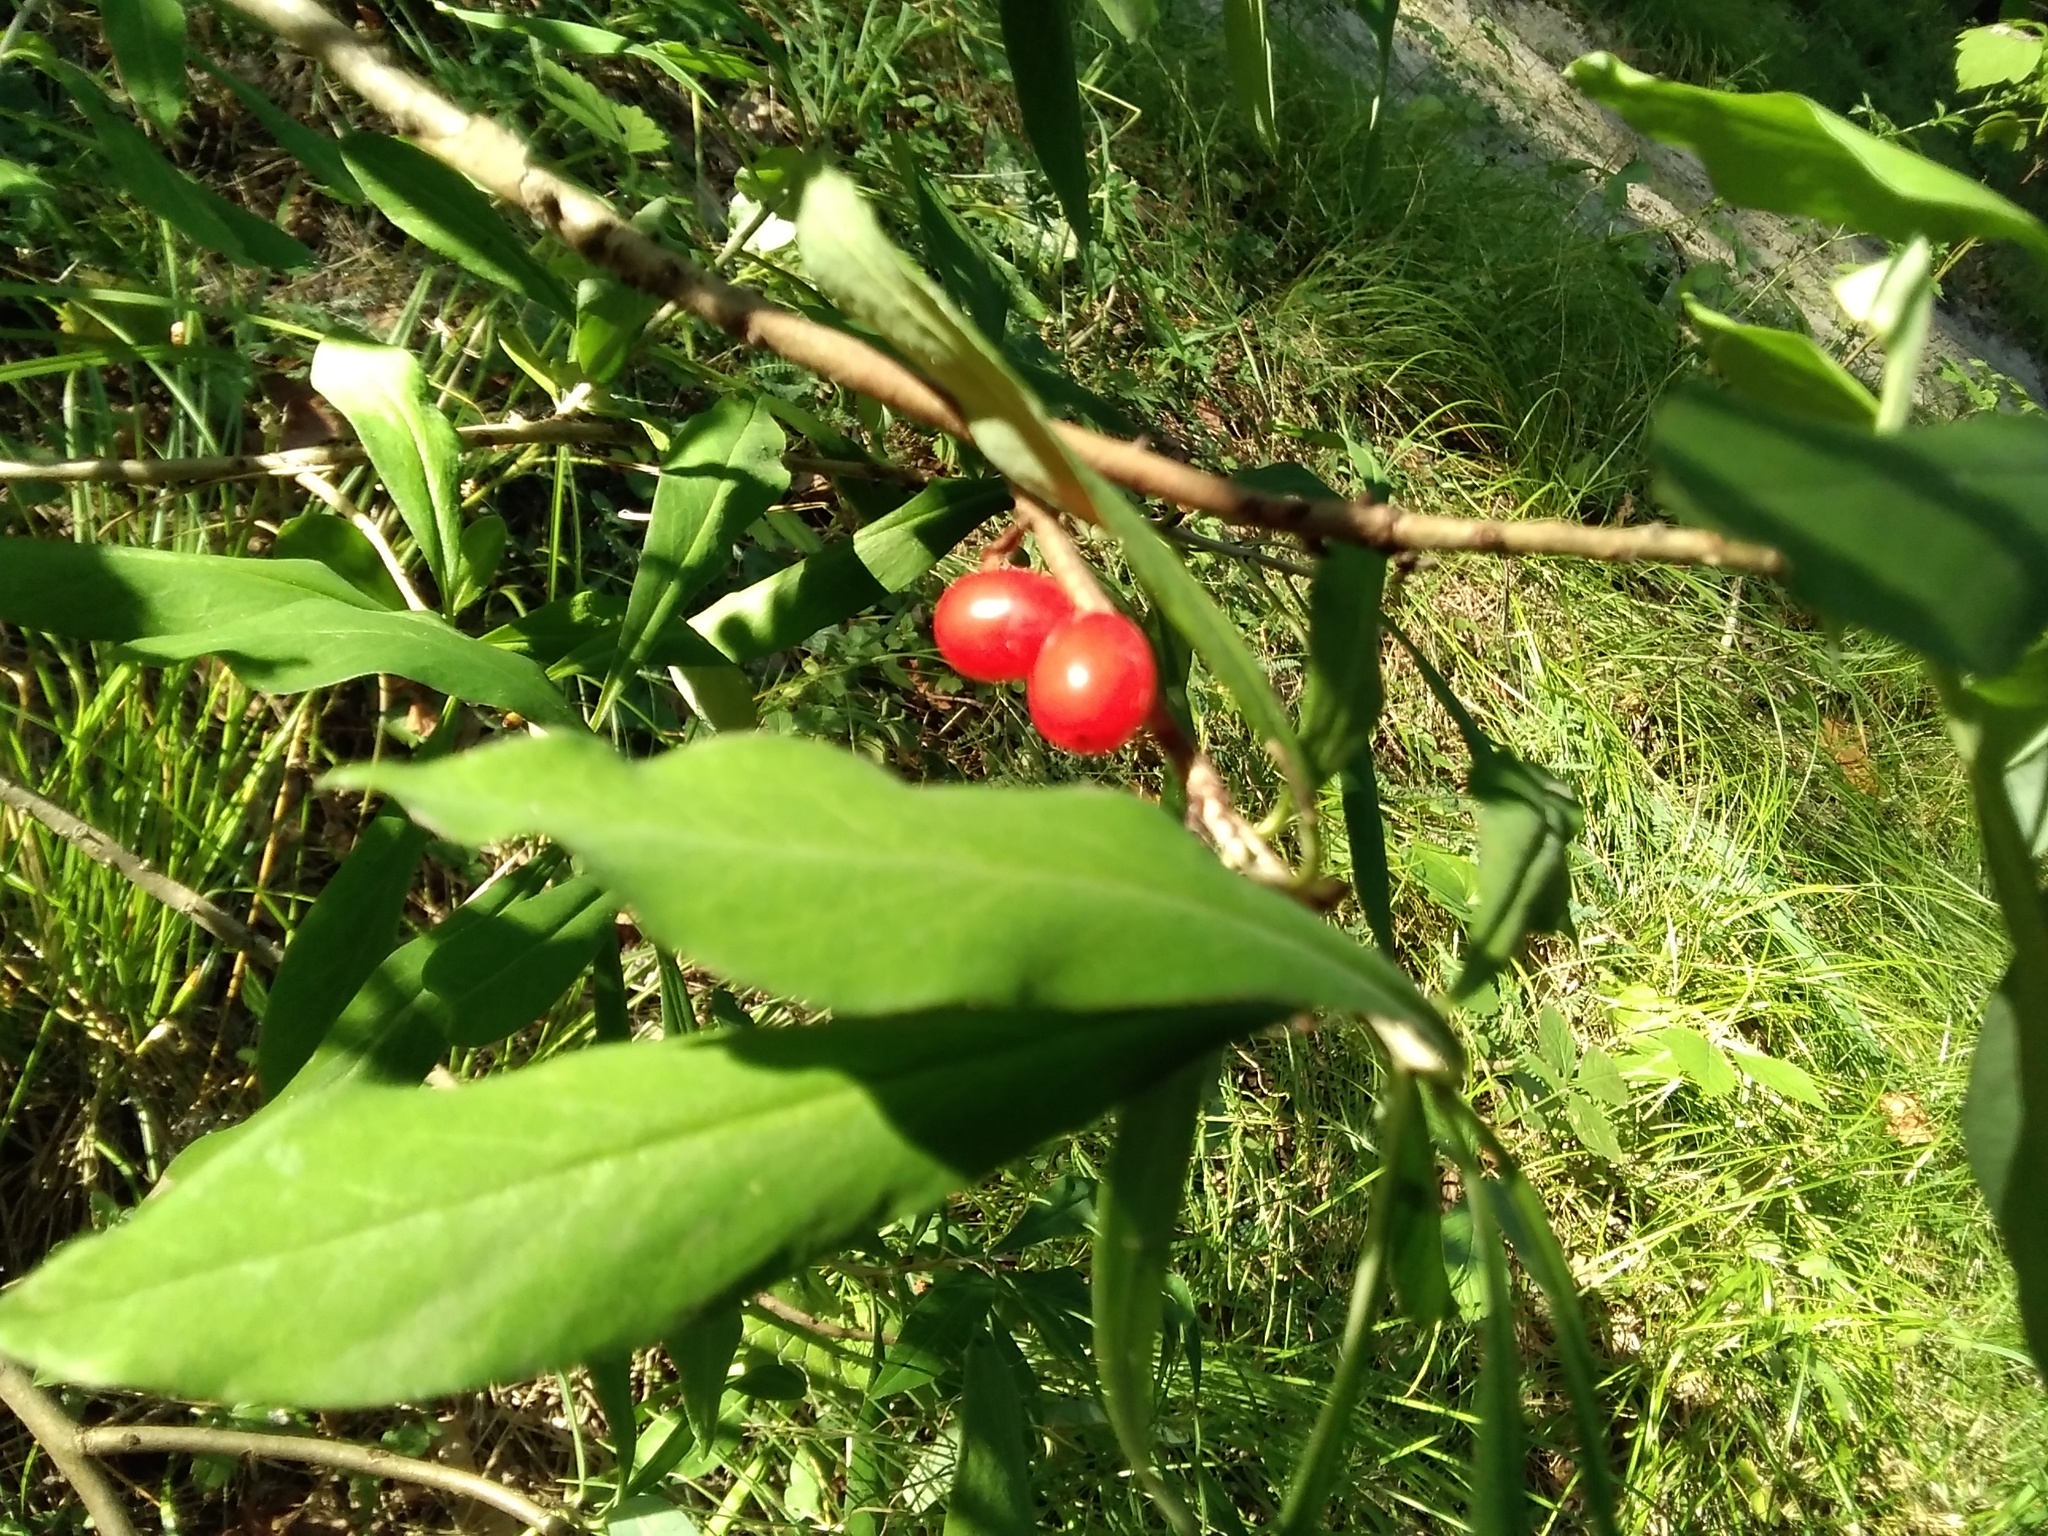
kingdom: Plantae
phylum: Tracheophyta
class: Magnoliopsida
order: Malvales
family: Thymelaeaceae
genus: Daphne
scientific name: Daphne mezereum
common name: Mezereon
